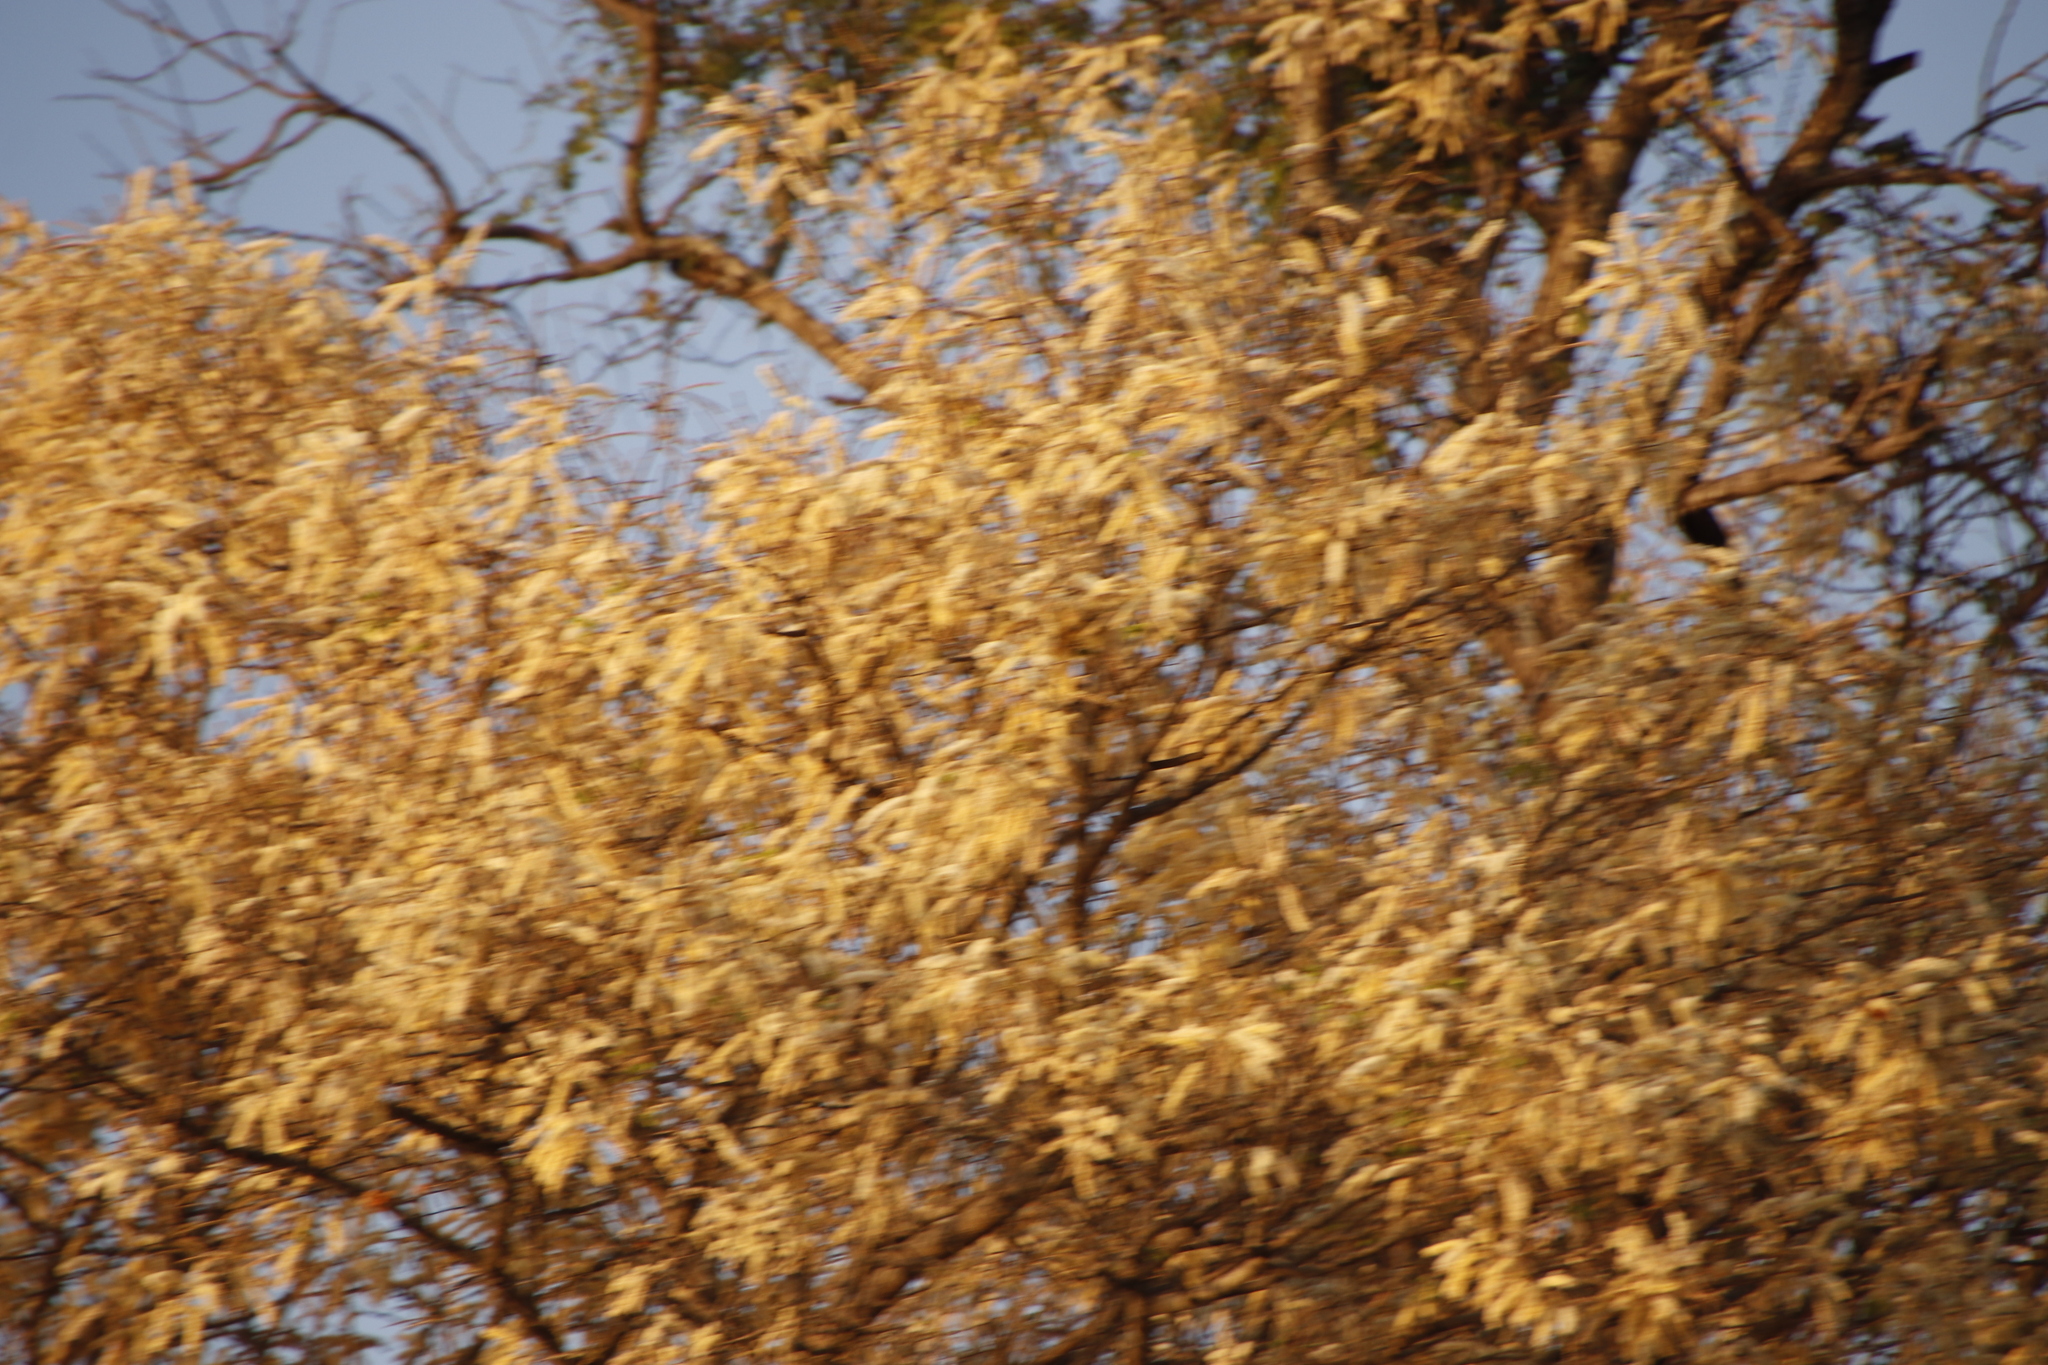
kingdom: Plantae
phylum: Tracheophyta
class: Magnoliopsida
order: Fabales
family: Fabaceae
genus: Senegalia
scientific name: Senegalia nigrescens
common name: Knobthorn
